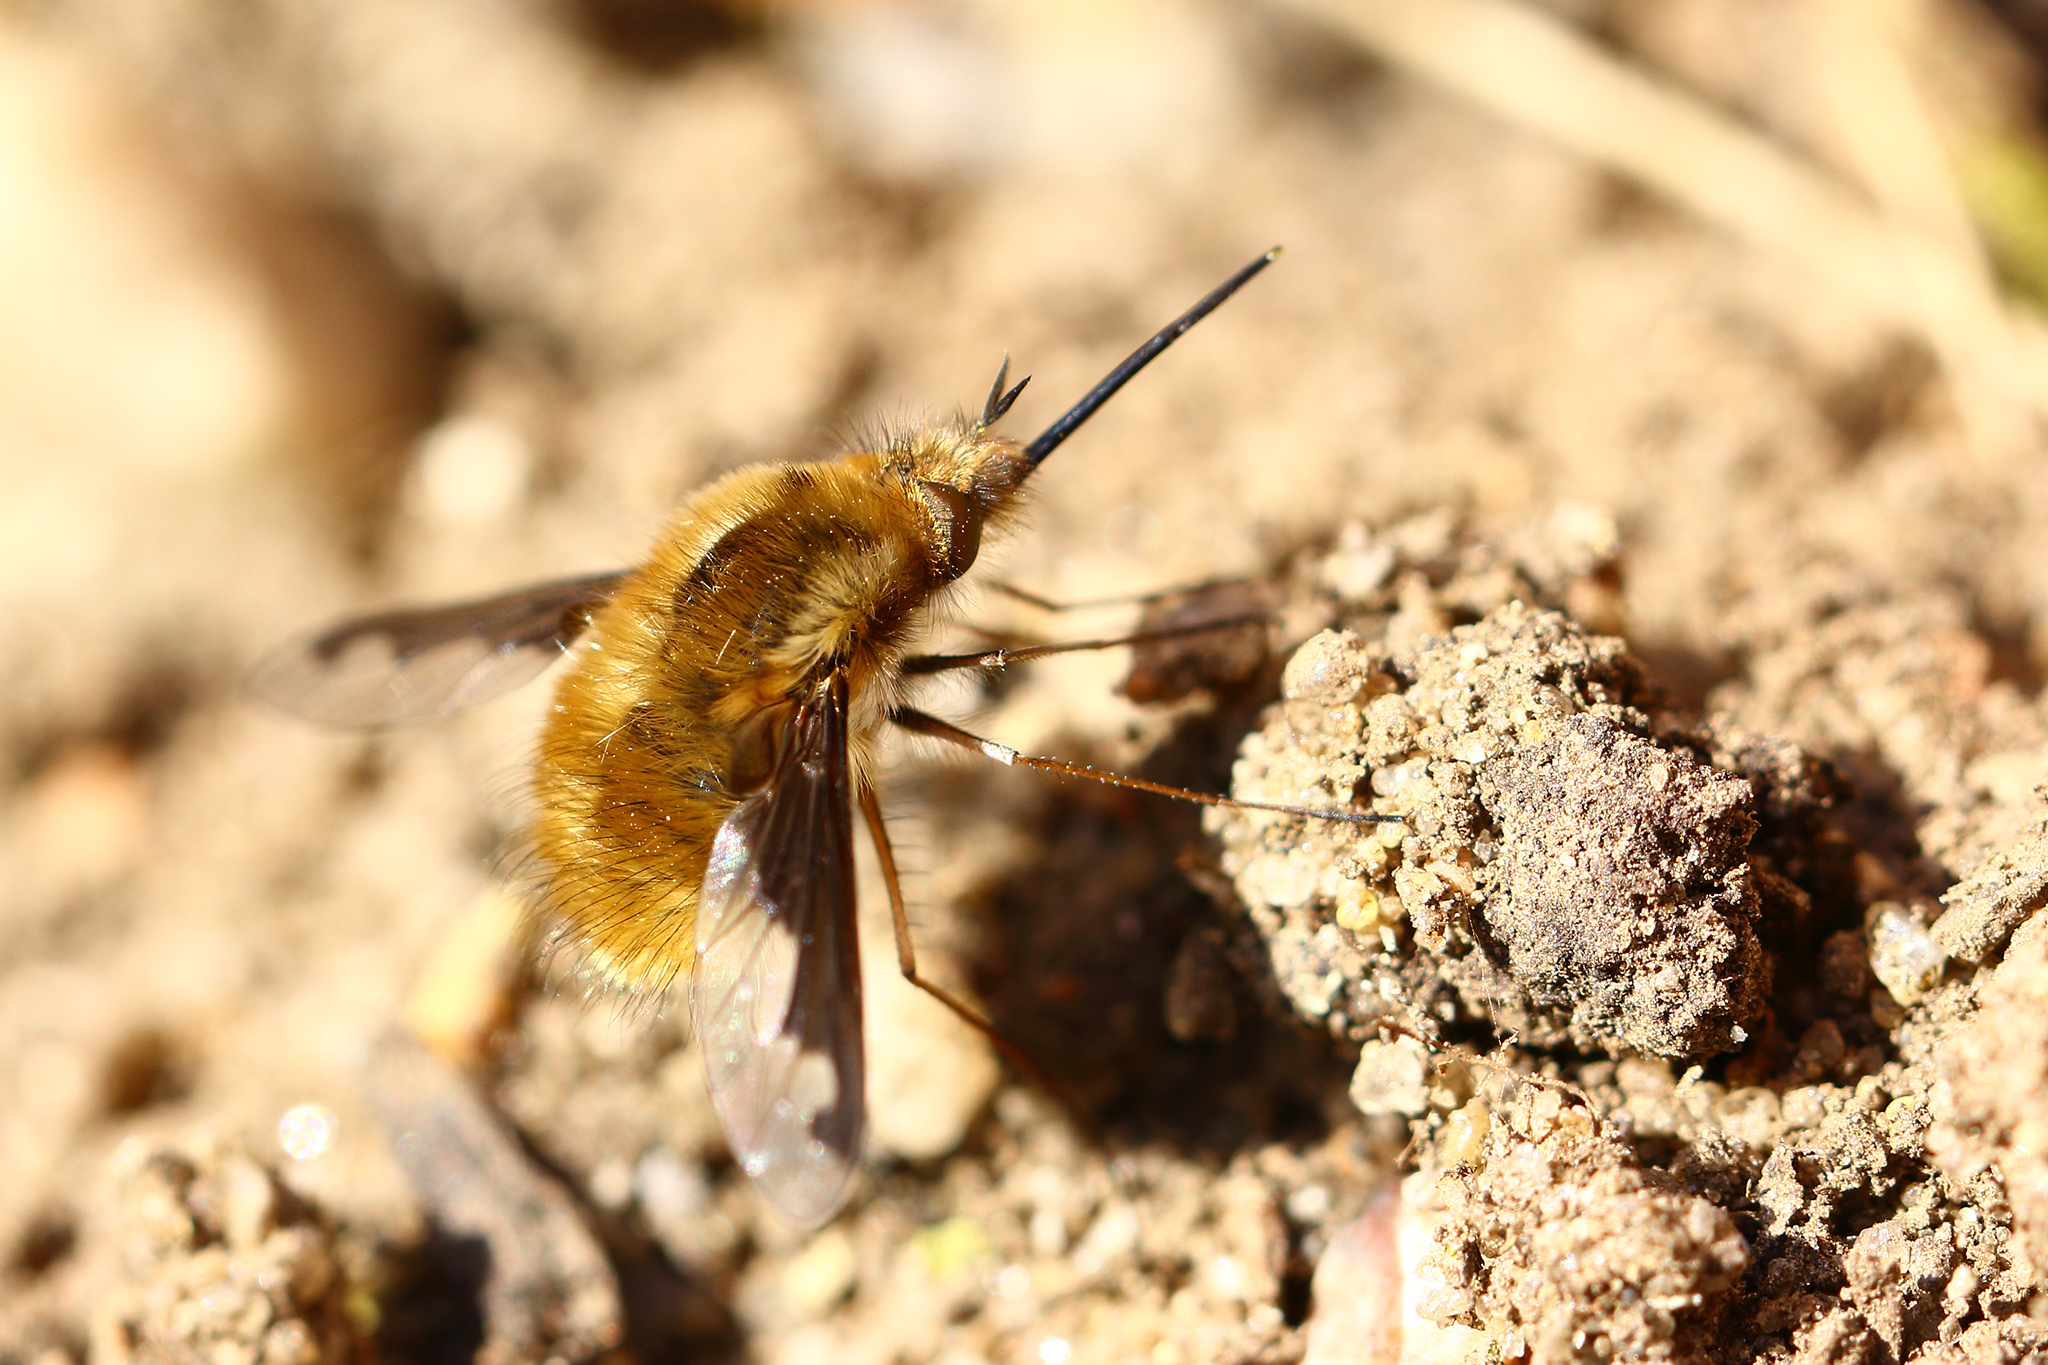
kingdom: Animalia
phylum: Arthropoda
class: Insecta
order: Diptera
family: Bombyliidae
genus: Bombylius
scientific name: Bombylius major
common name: Bee fly
